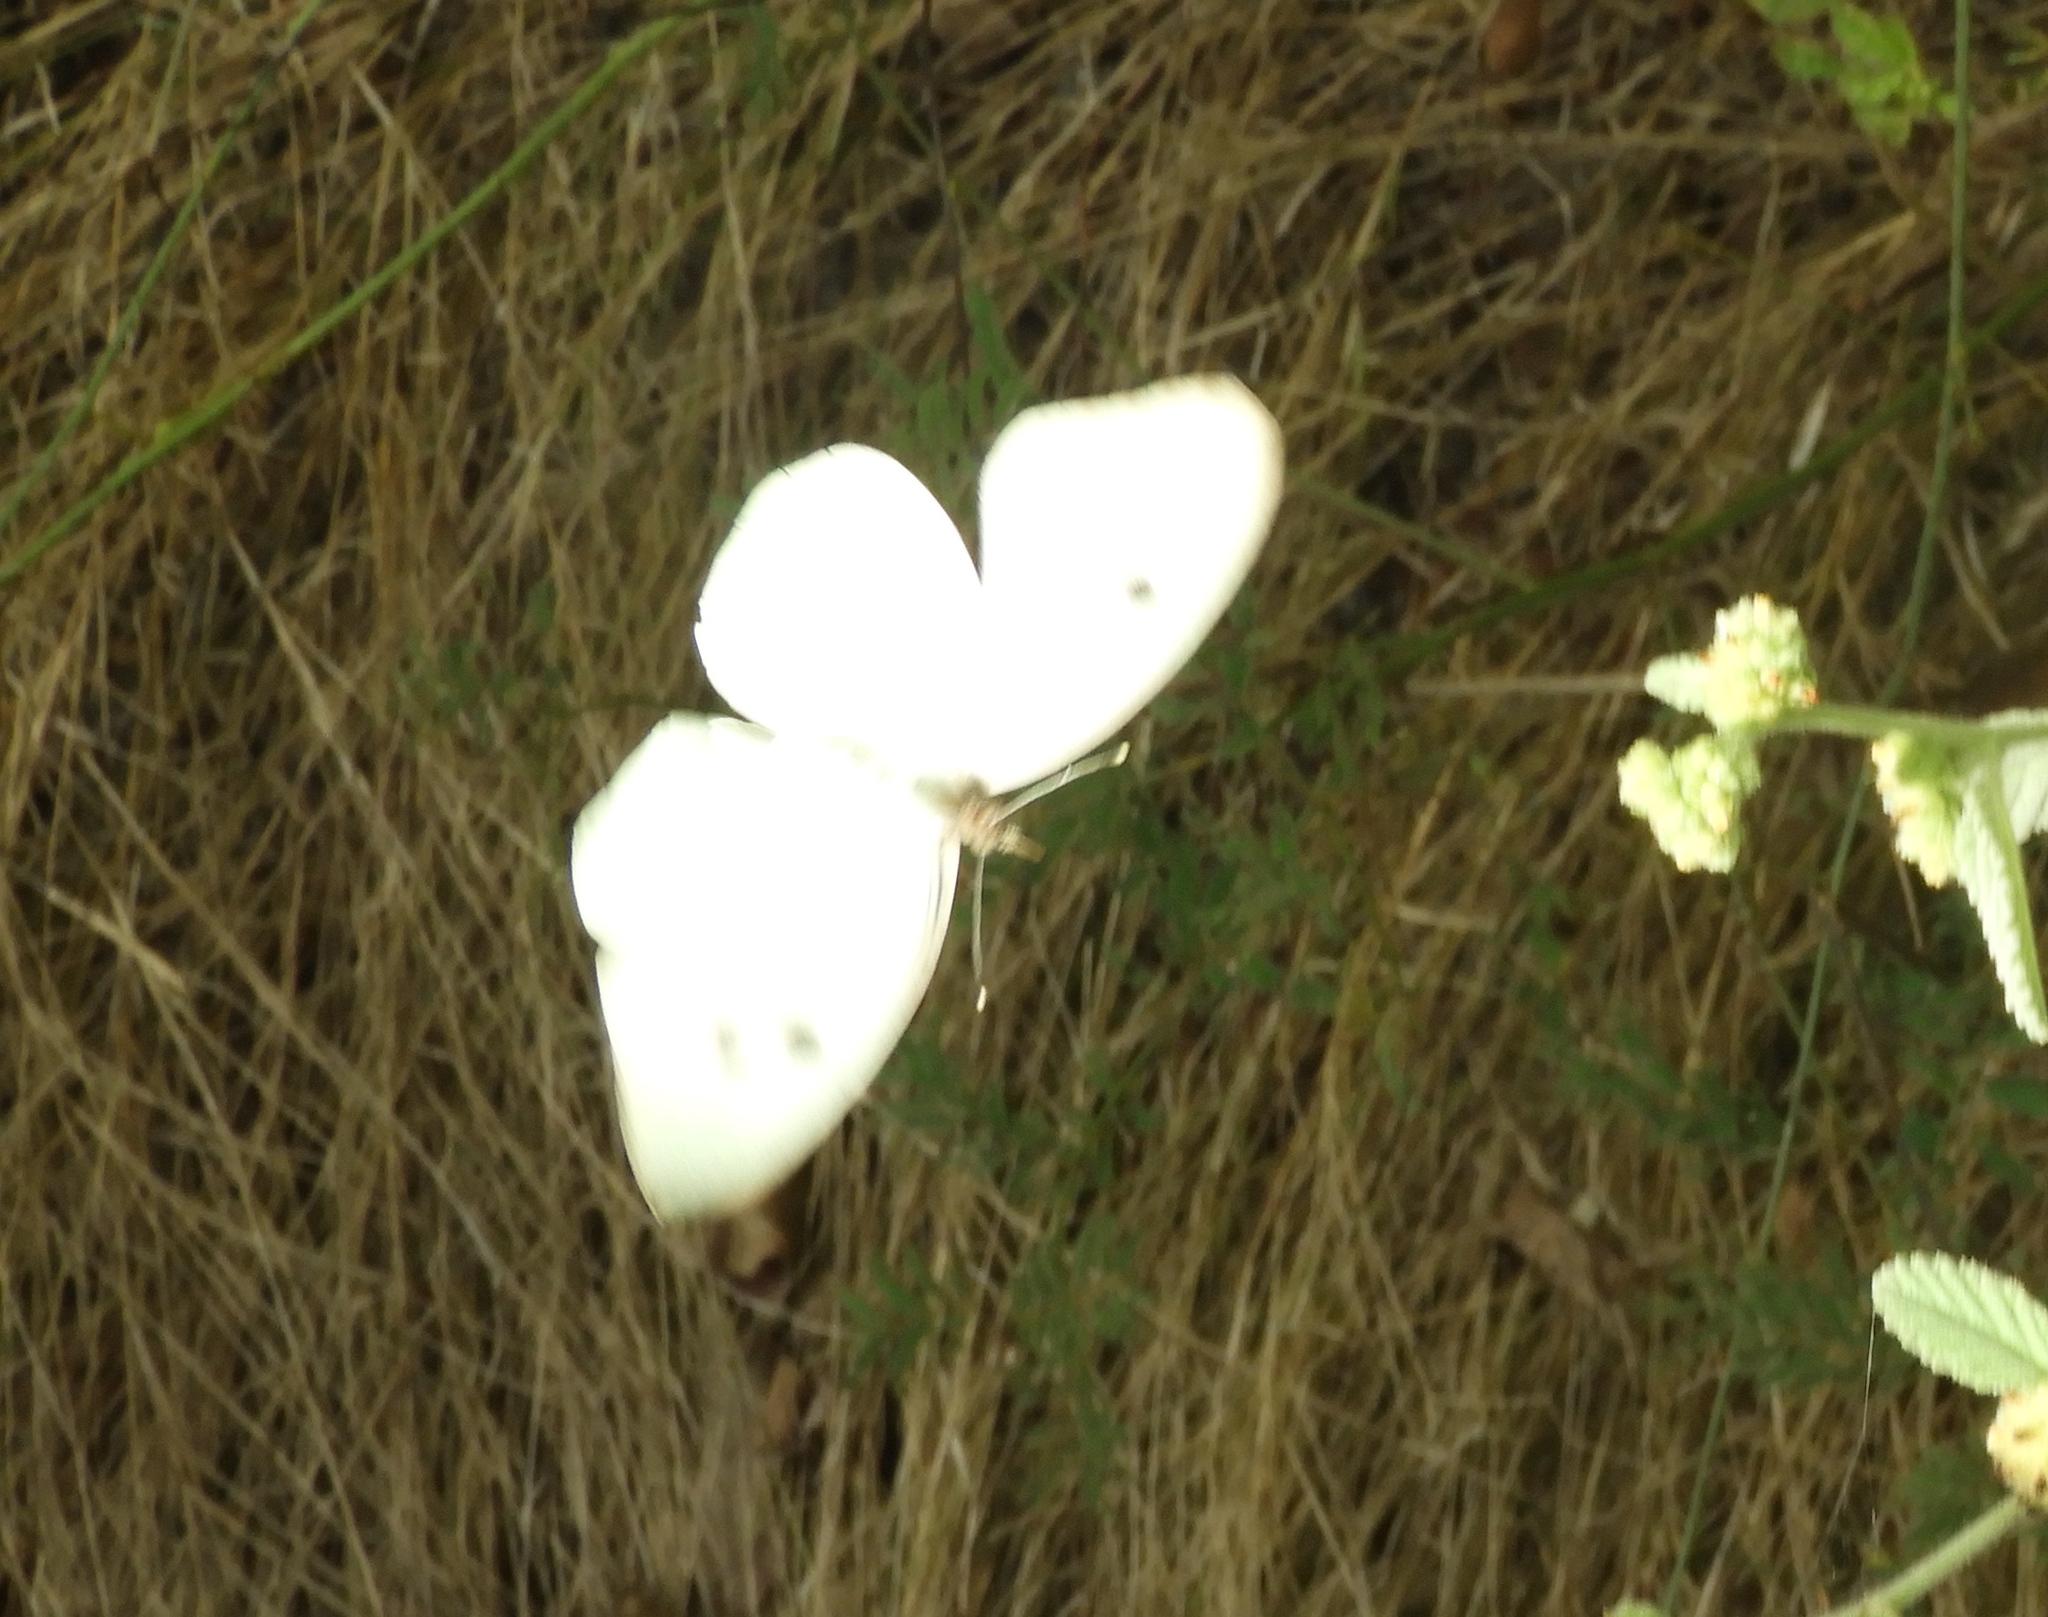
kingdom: Animalia
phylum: Arthropoda
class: Insecta
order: Lepidoptera
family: Pieridae
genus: Ganyra
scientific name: Ganyra josephina
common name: Giant white
